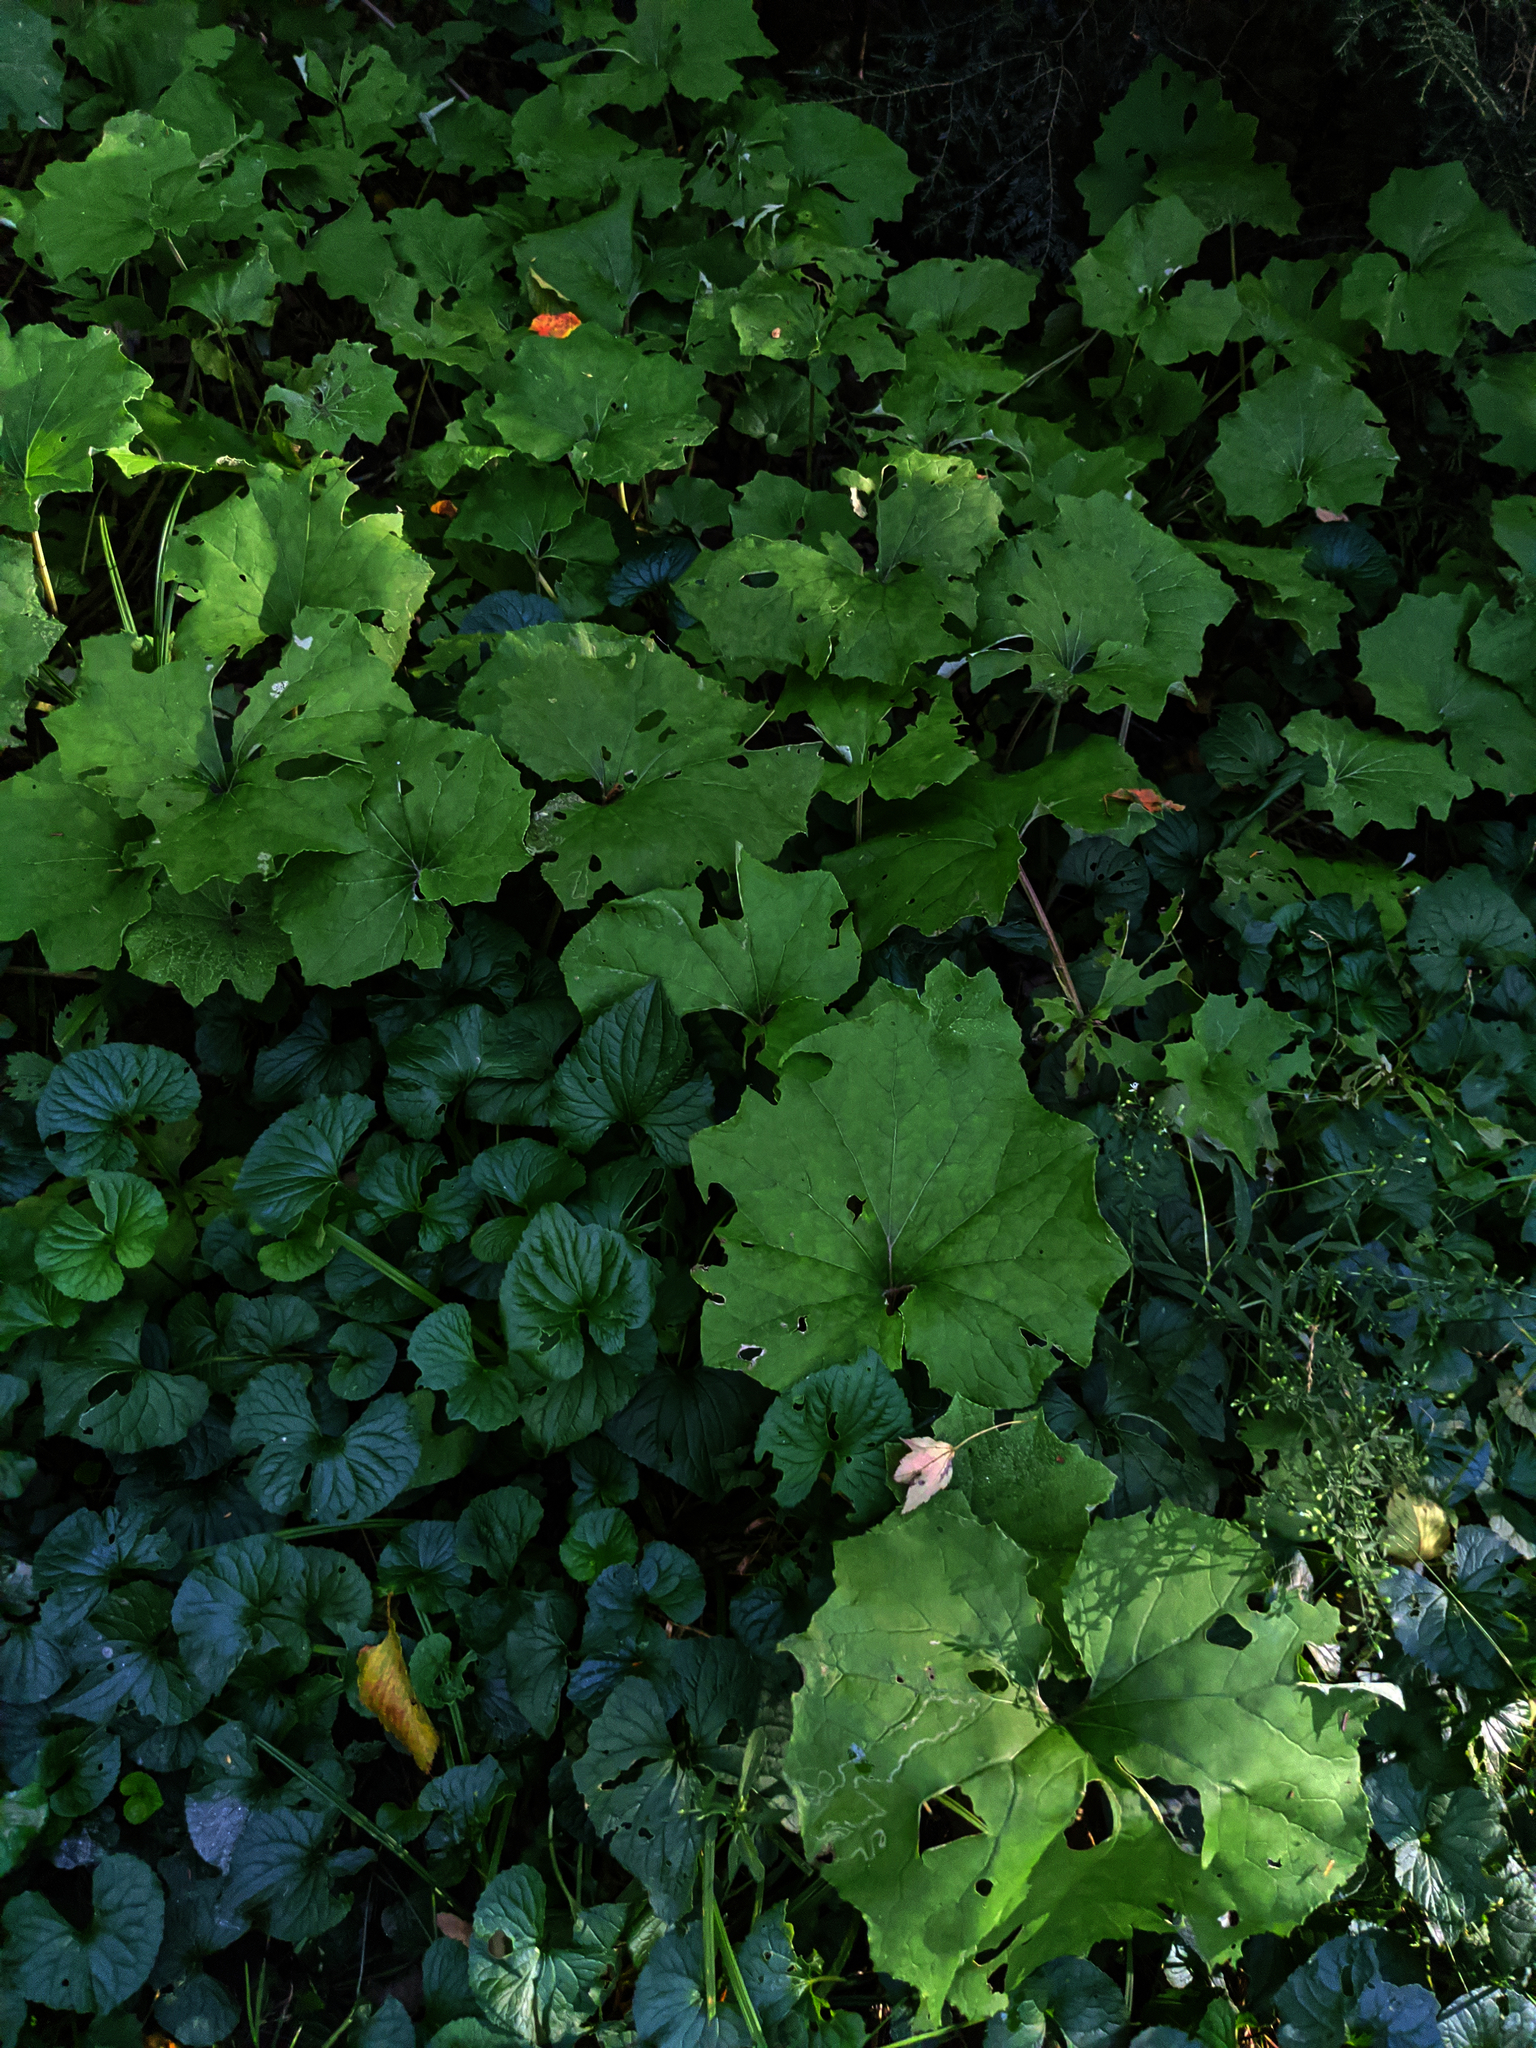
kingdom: Plantae
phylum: Tracheophyta
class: Magnoliopsida
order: Asterales
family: Asteraceae
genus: Tussilago
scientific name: Tussilago farfara
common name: Coltsfoot
